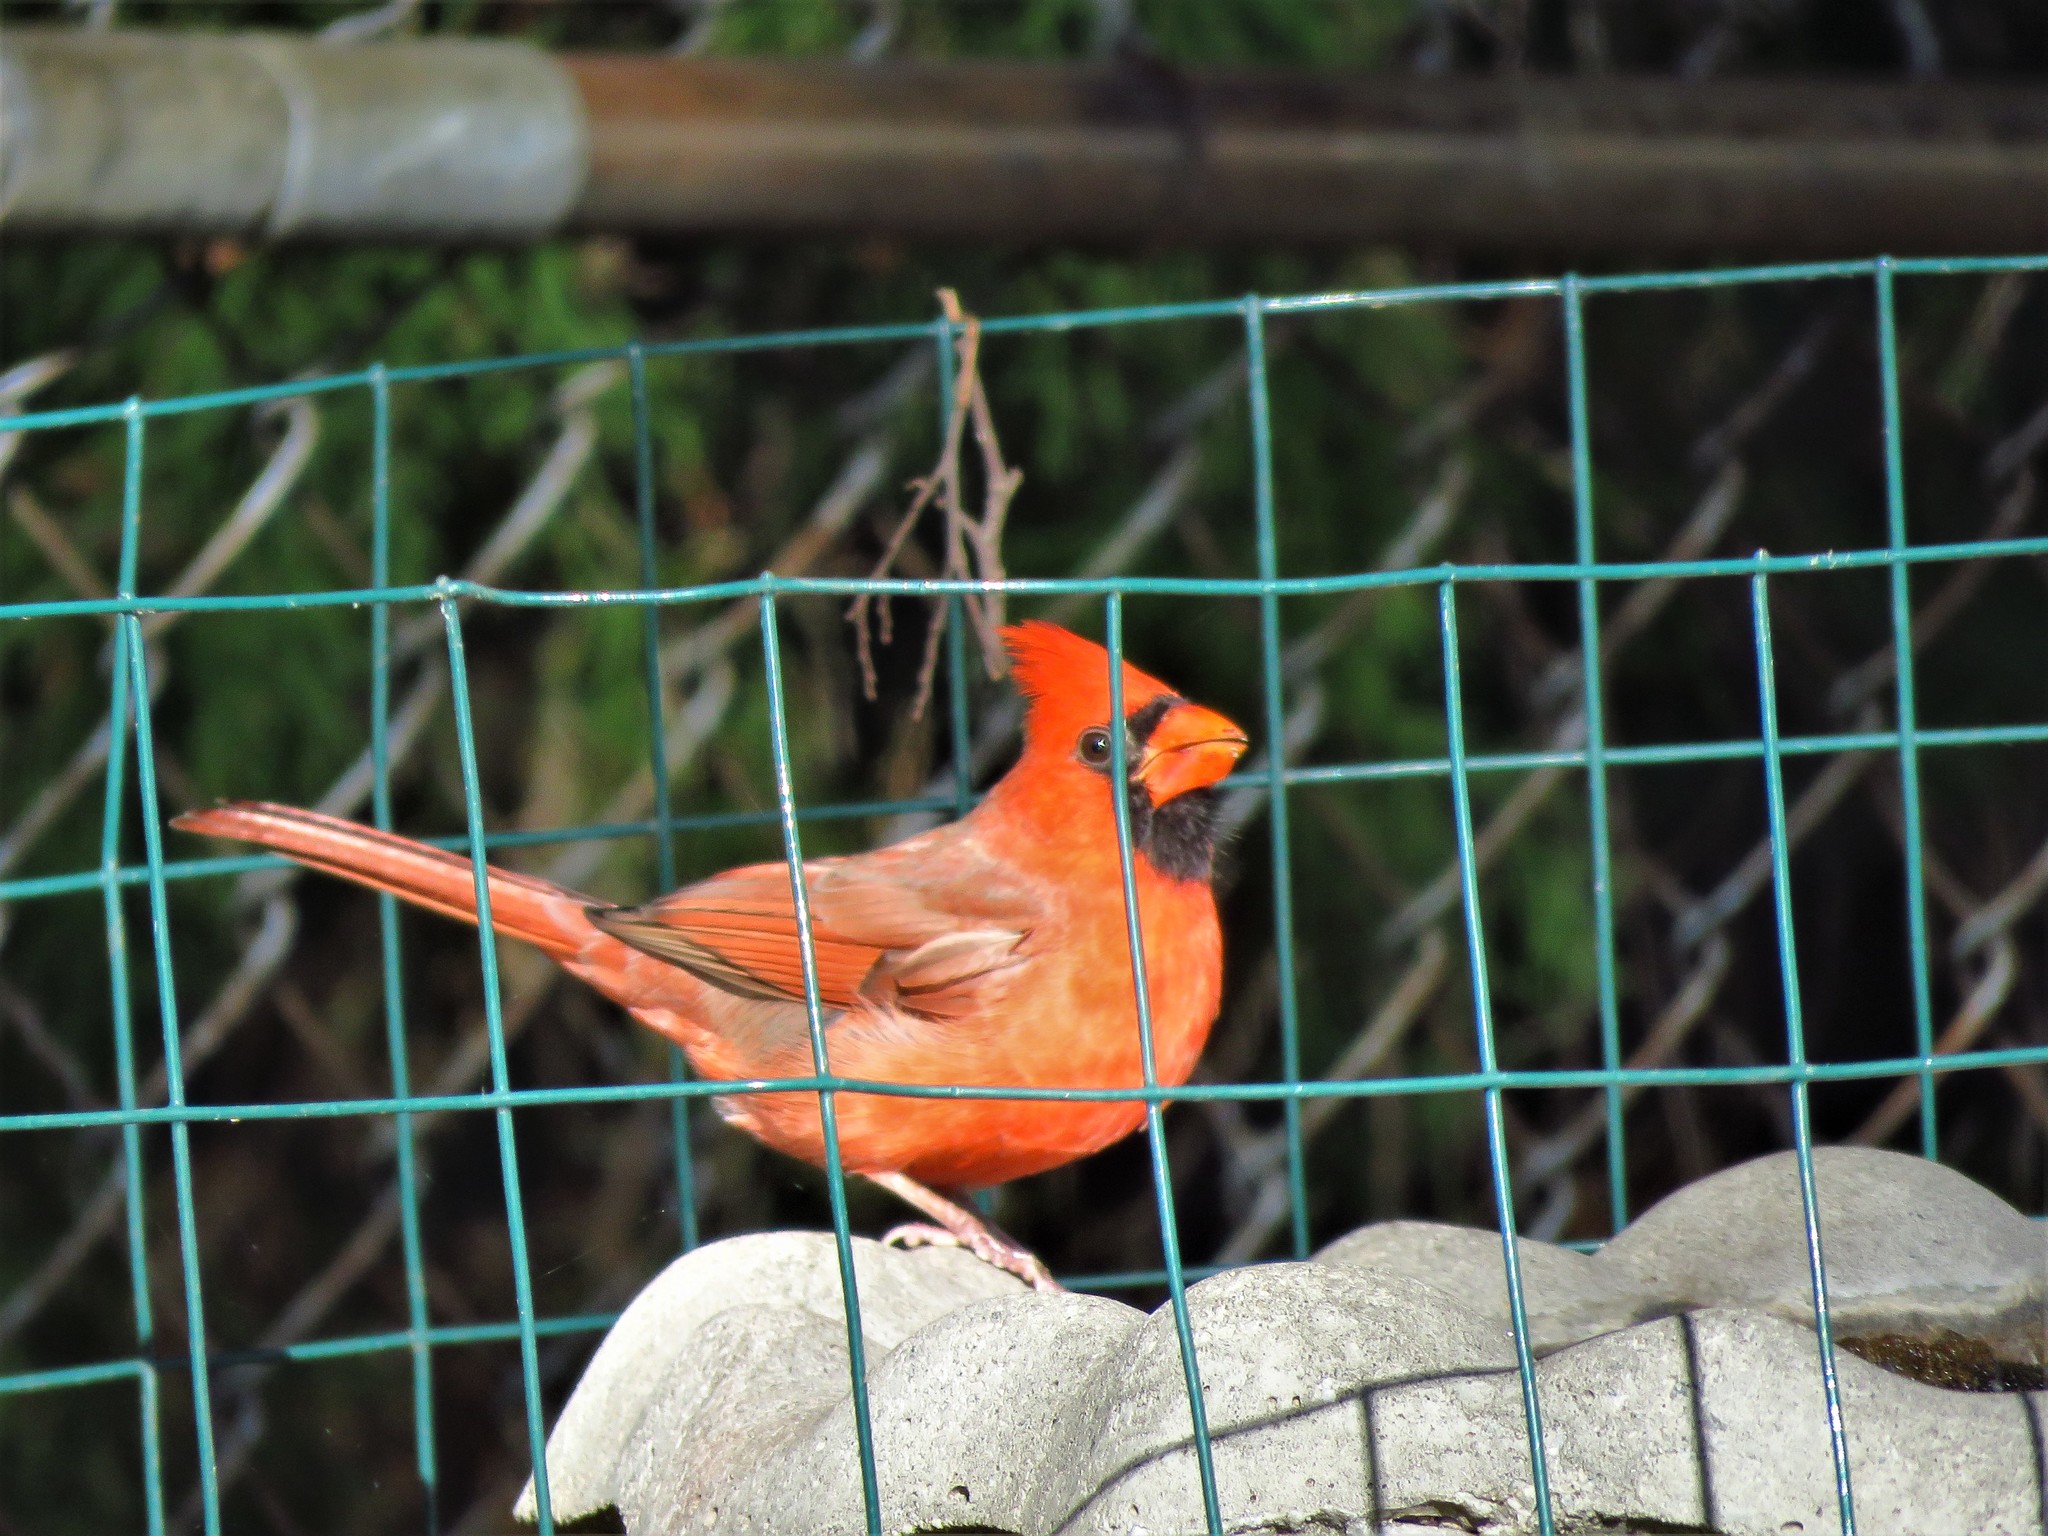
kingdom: Animalia
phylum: Chordata
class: Aves
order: Passeriformes
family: Cardinalidae
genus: Cardinalis
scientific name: Cardinalis cardinalis
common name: Northern cardinal
